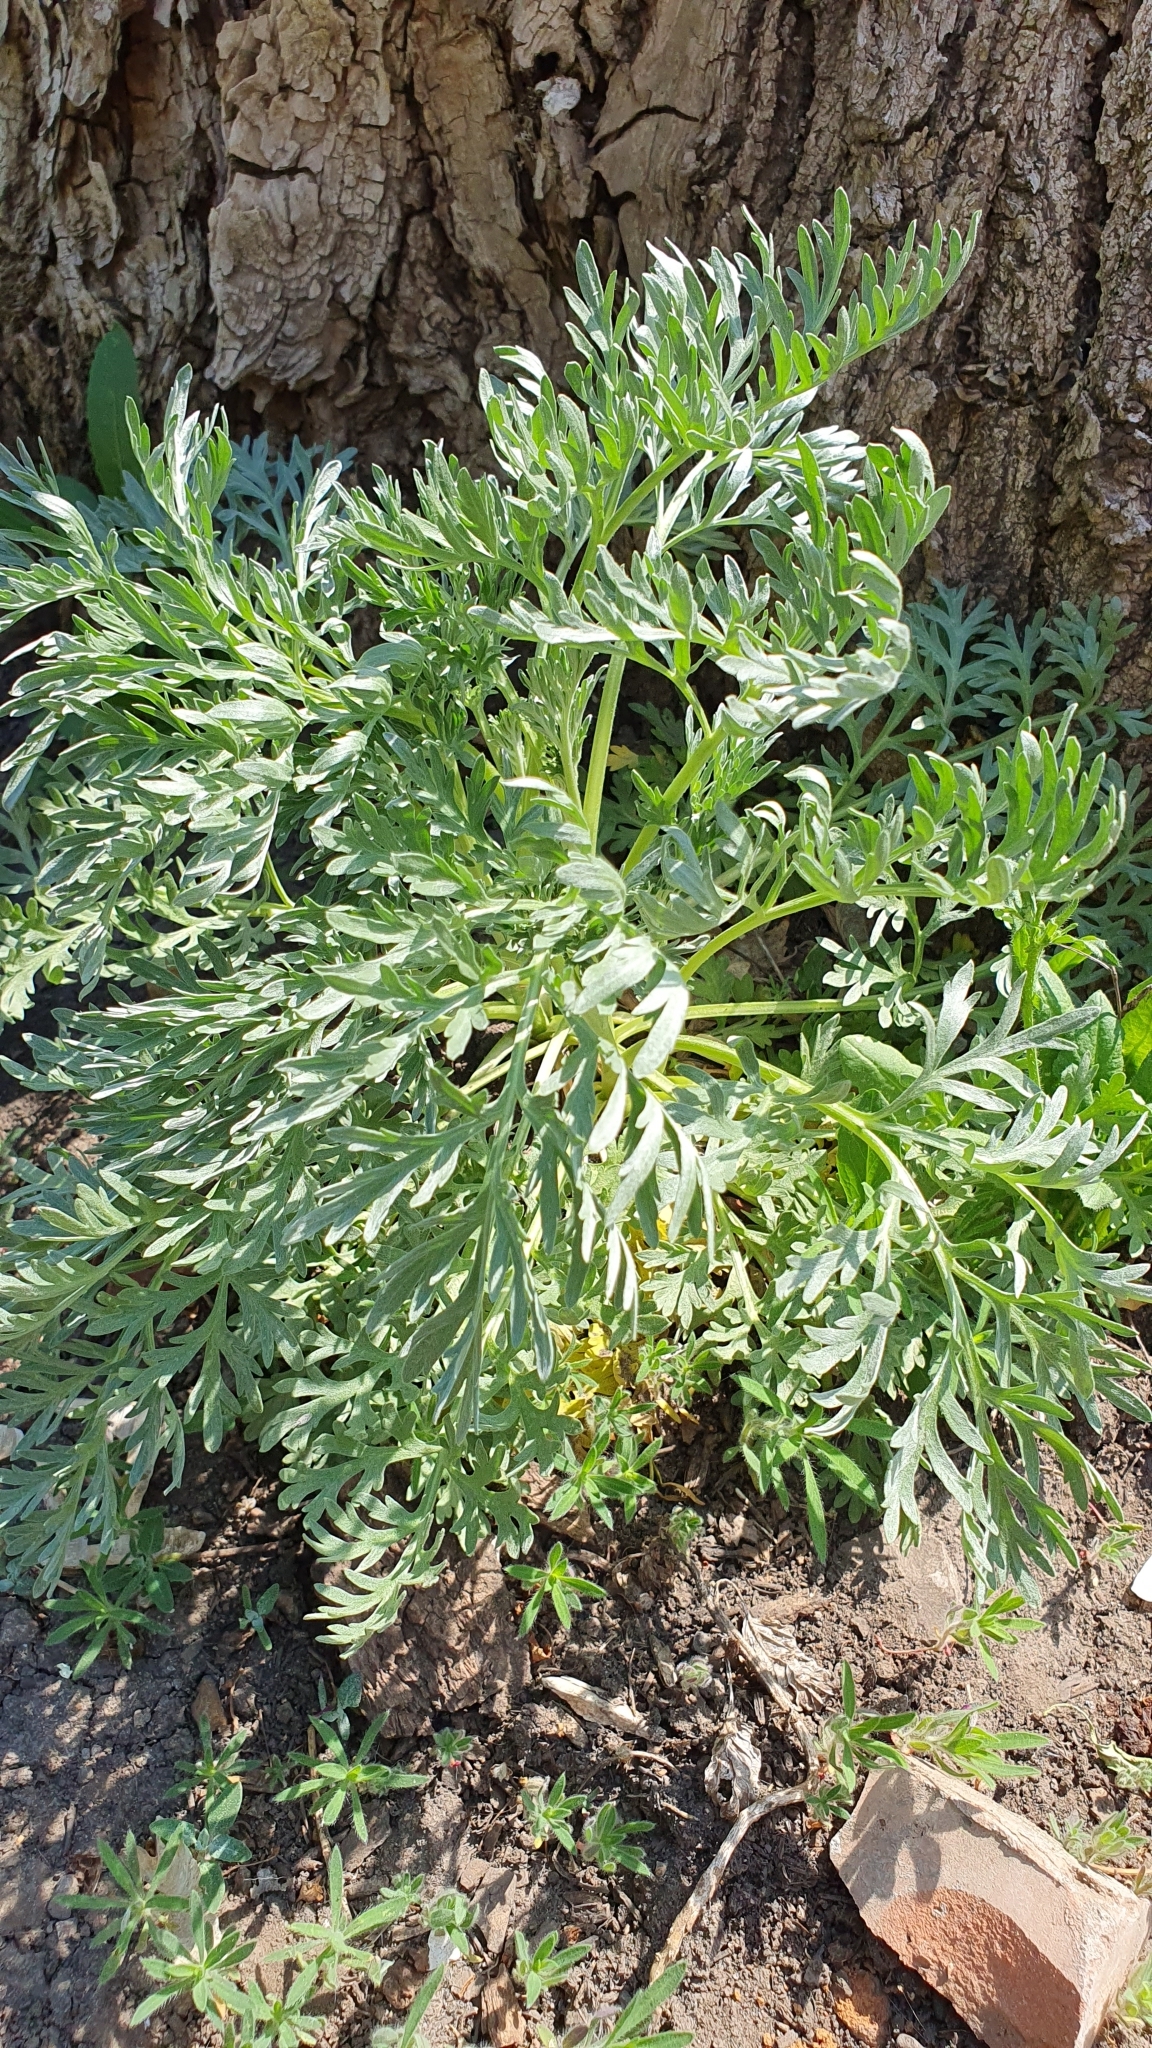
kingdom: Plantae
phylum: Tracheophyta
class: Magnoliopsida
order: Asterales
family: Asteraceae
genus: Artemisia
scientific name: Artemisia absinthium
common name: Wormwood
